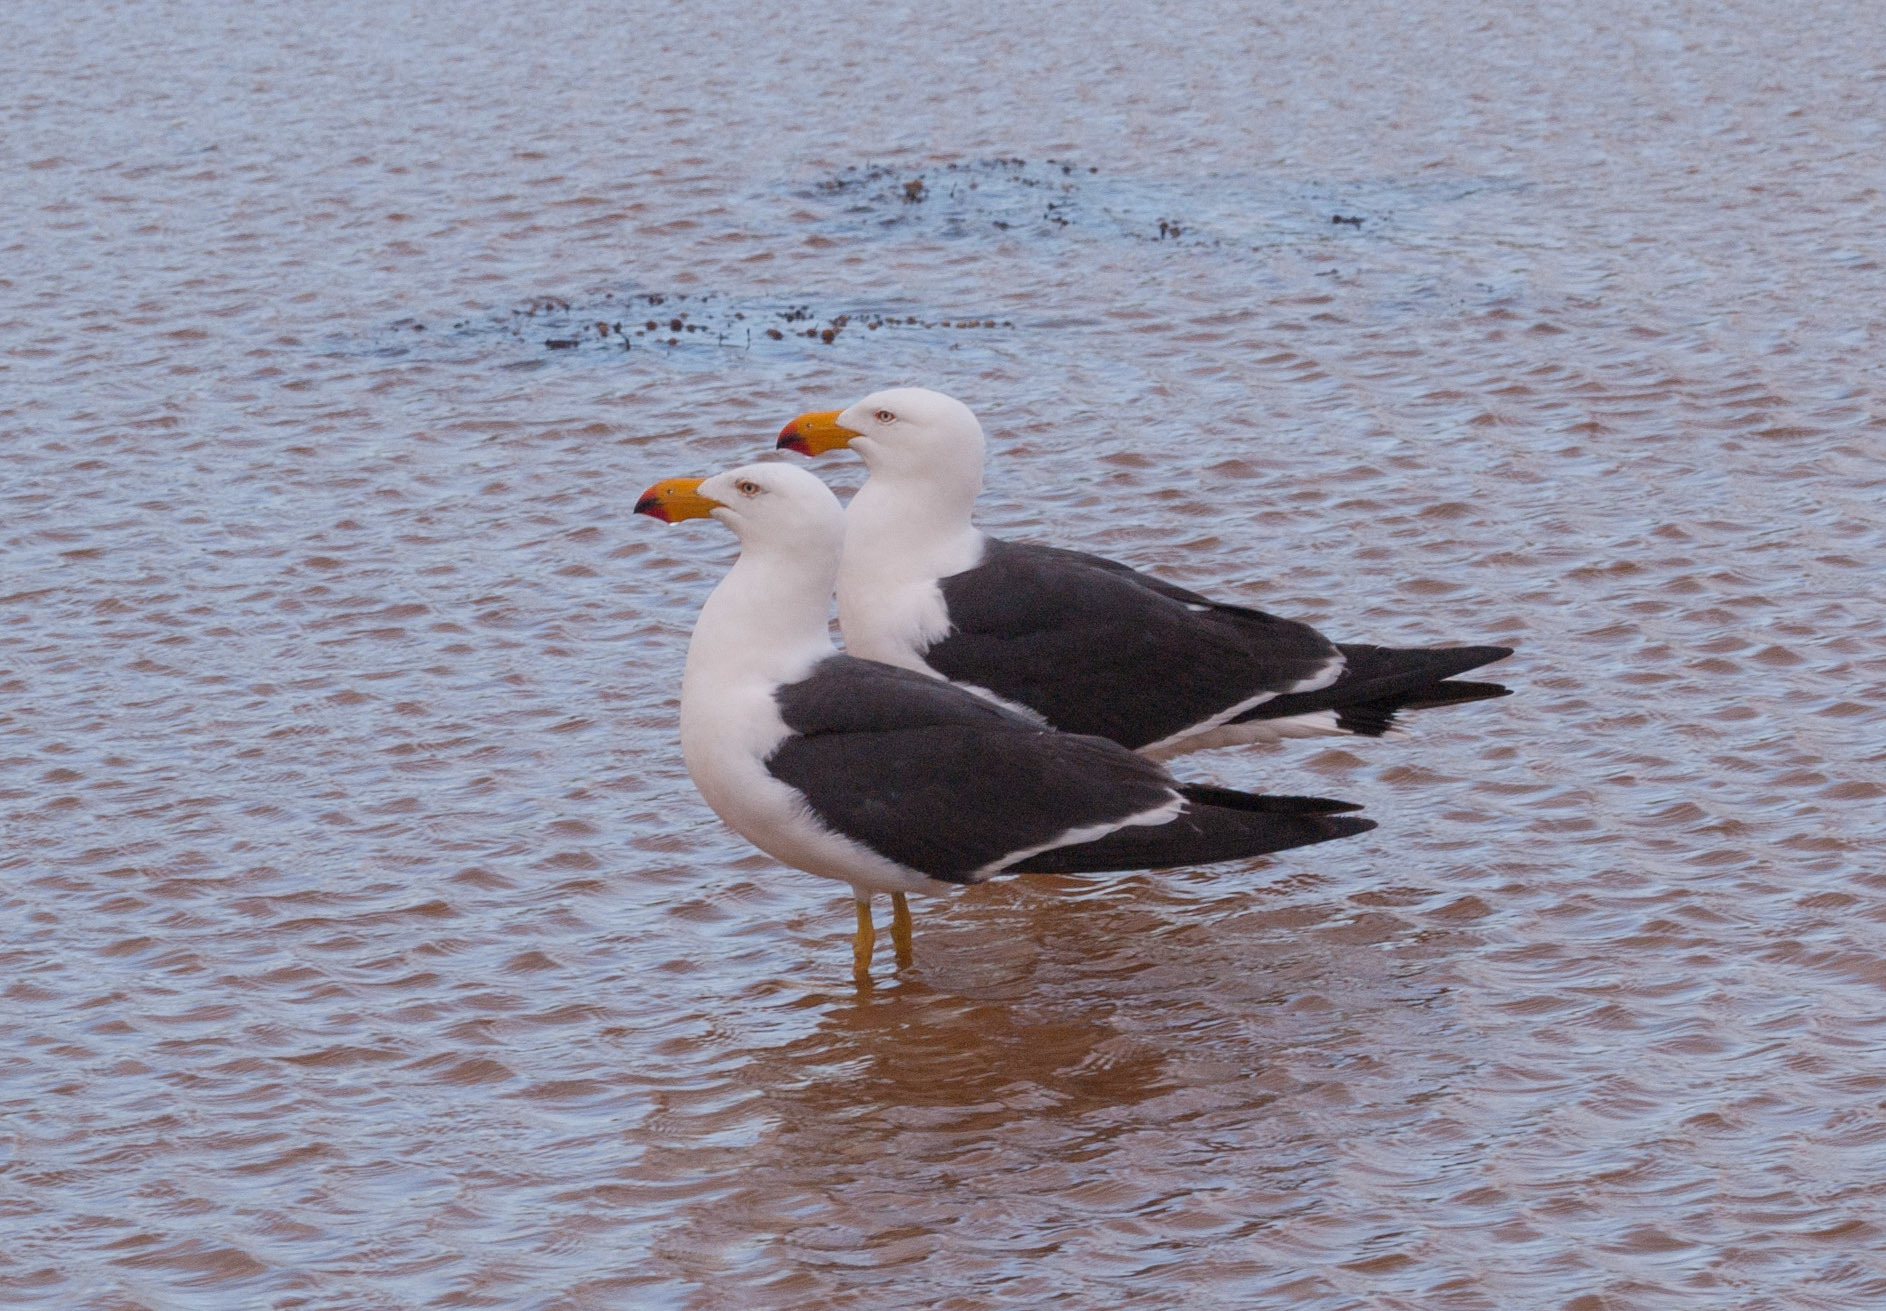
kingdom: Animalia
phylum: Chordata
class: Aves
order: Charadriiformes
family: Laridae
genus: Larus
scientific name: Larus pacificus
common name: Pacific gull
